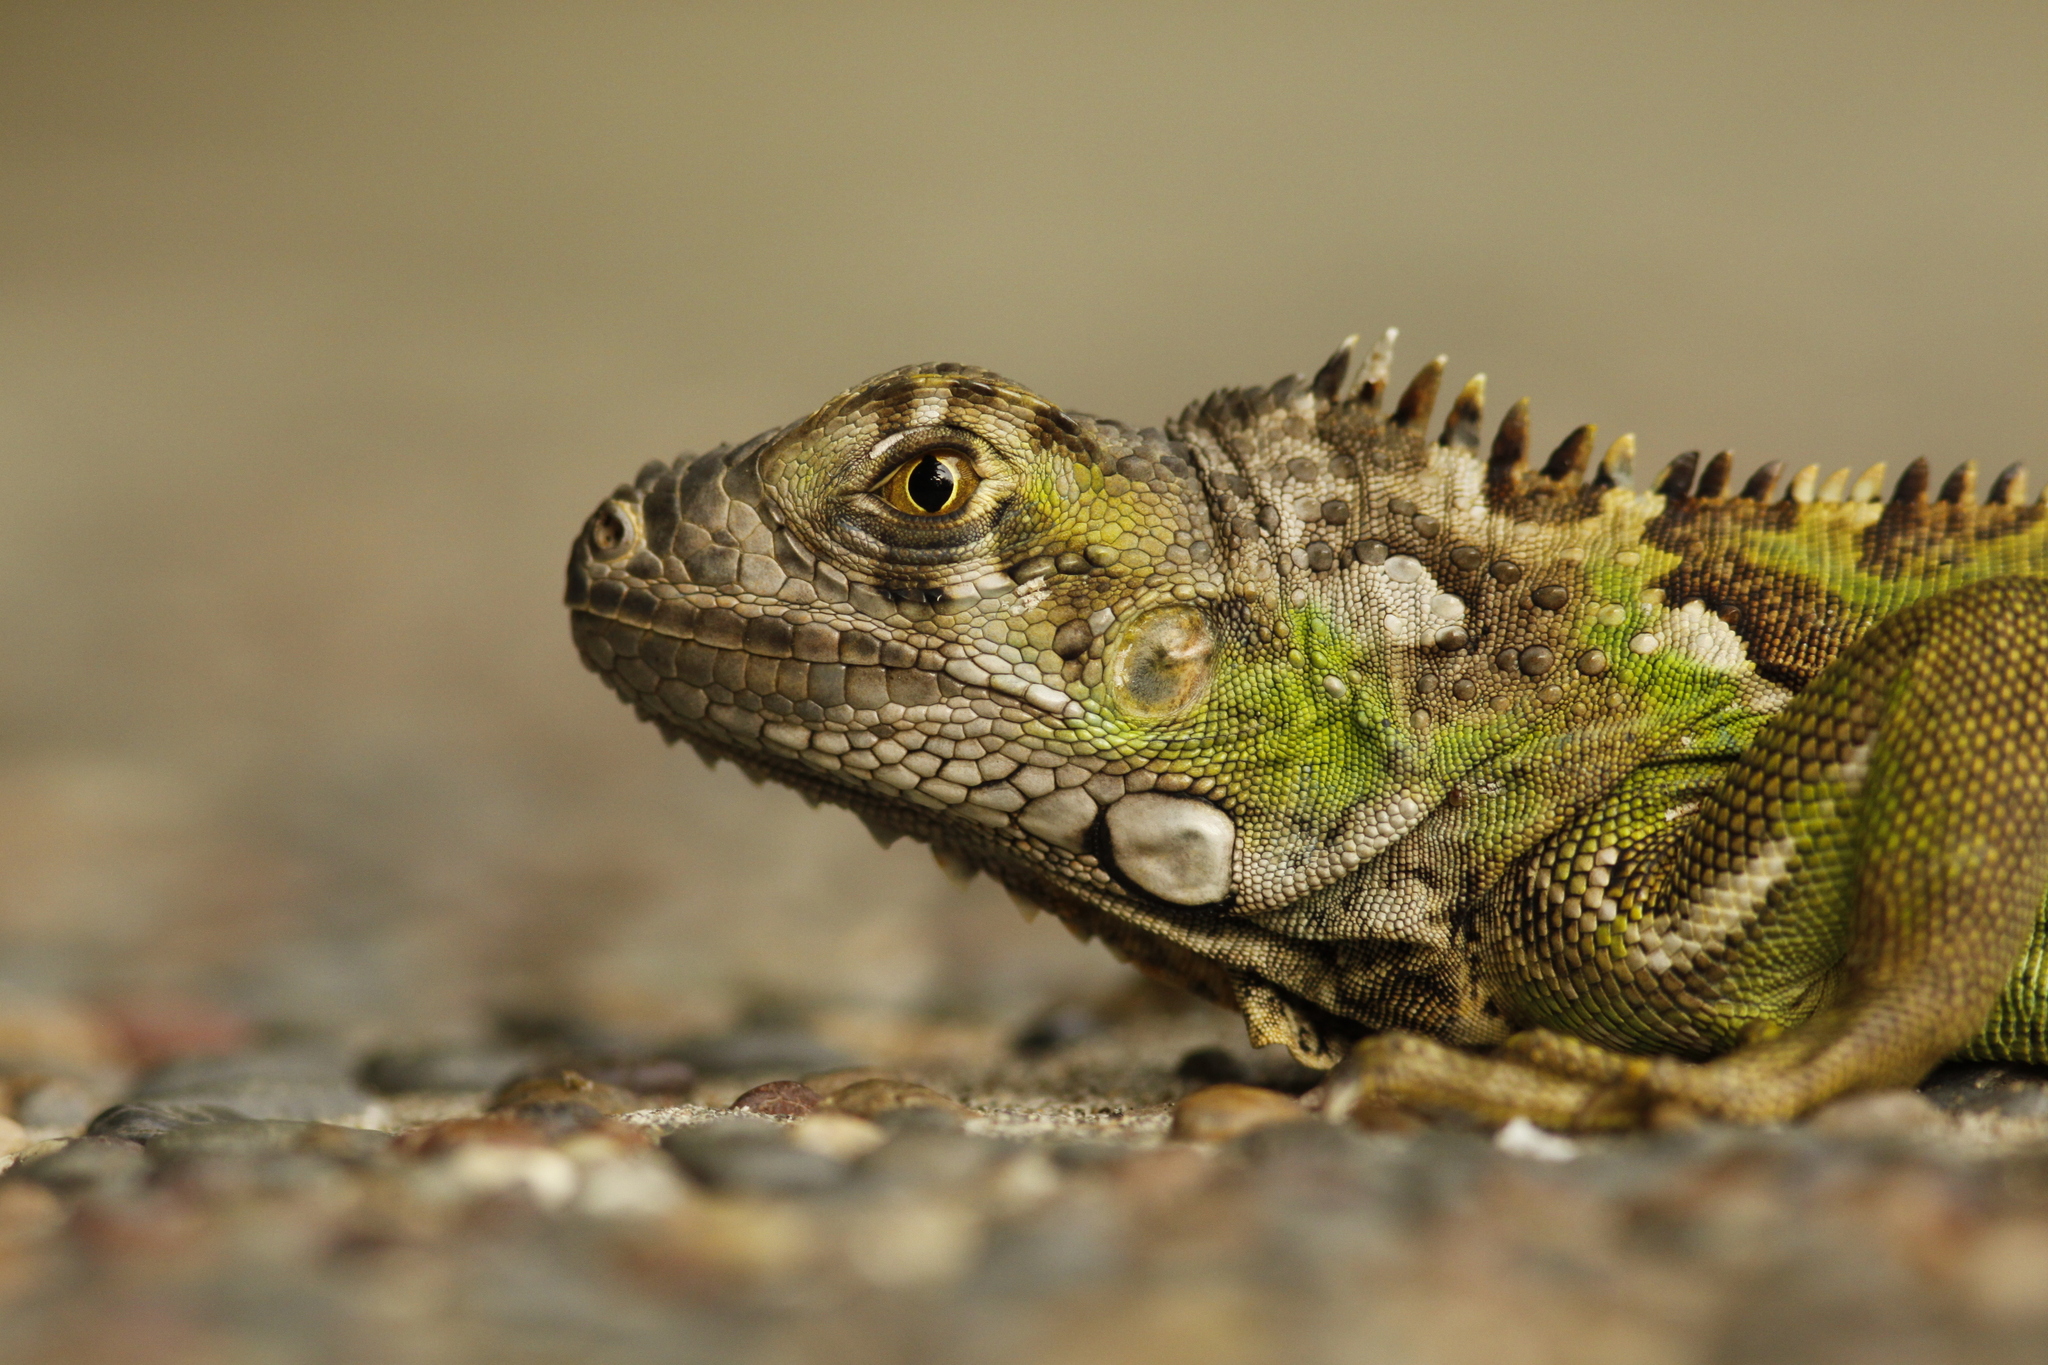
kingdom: Animalia
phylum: Chordata
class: Squamata
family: Iguanidae
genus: Iguana
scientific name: Iguana iguana
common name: Green iguana
